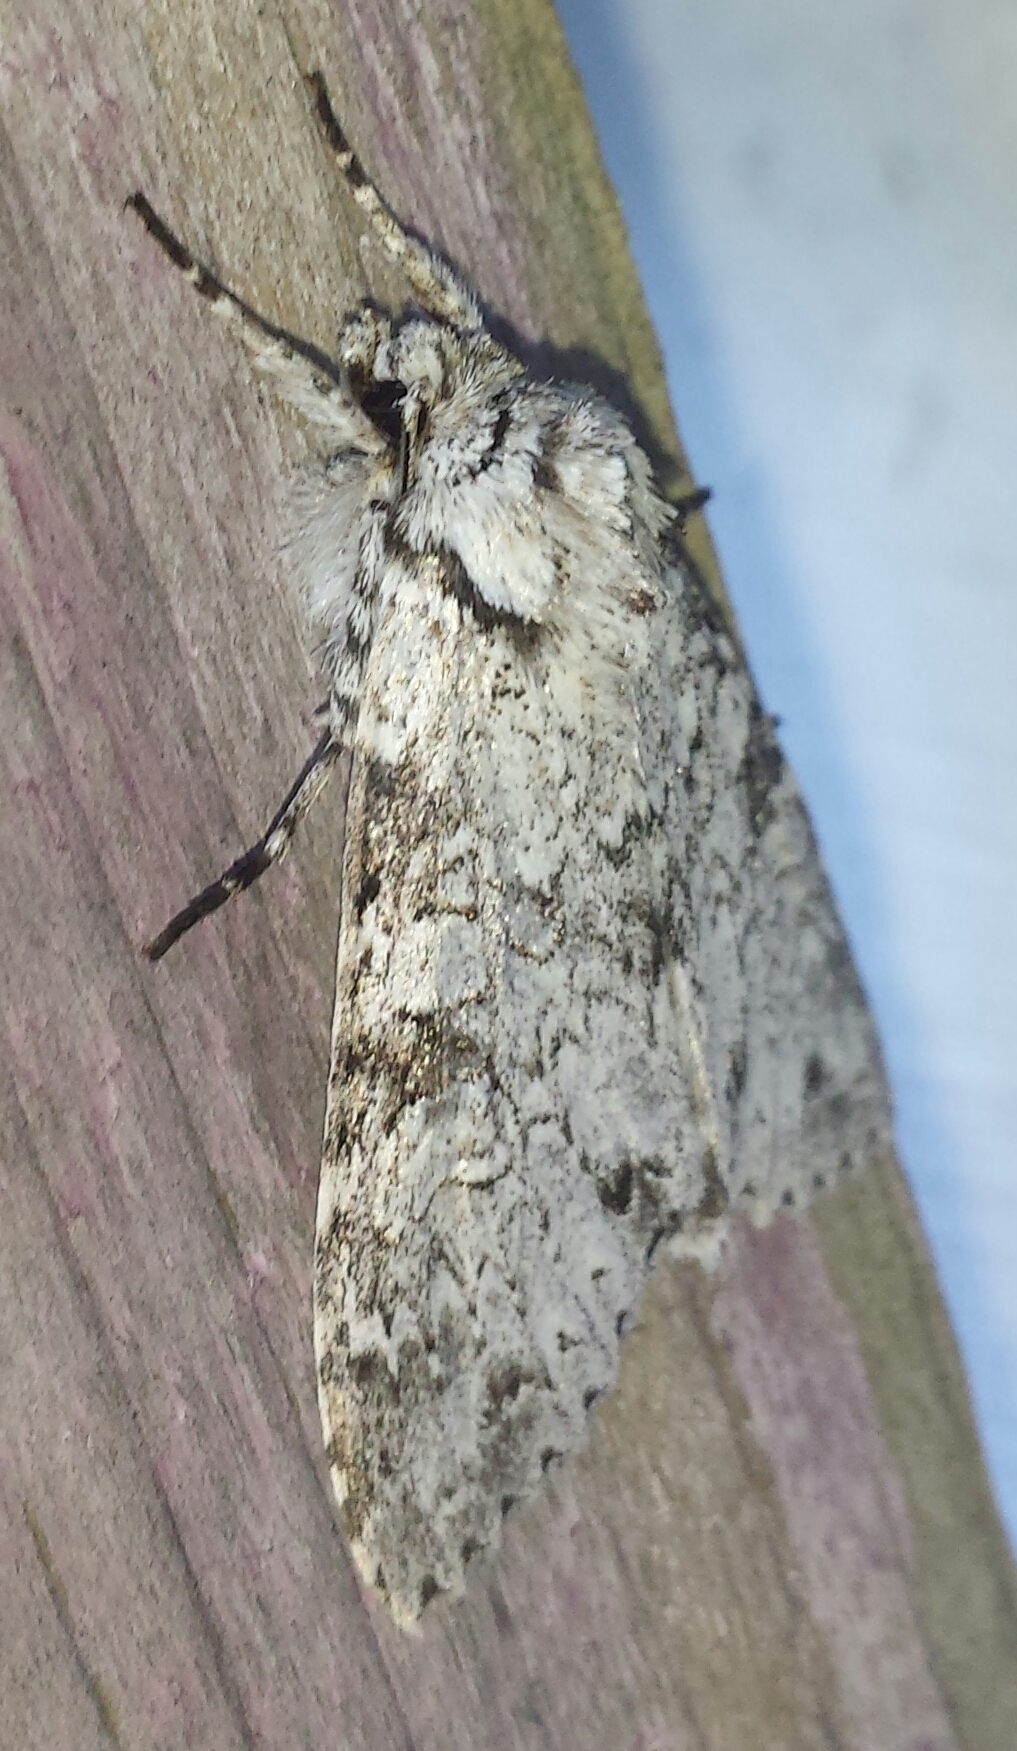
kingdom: Animalia
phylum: Arthropoda
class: Insecta
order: Lepidoptera
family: Noctuidae
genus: Polia
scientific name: Polia nimbosa
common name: Stormy arches
